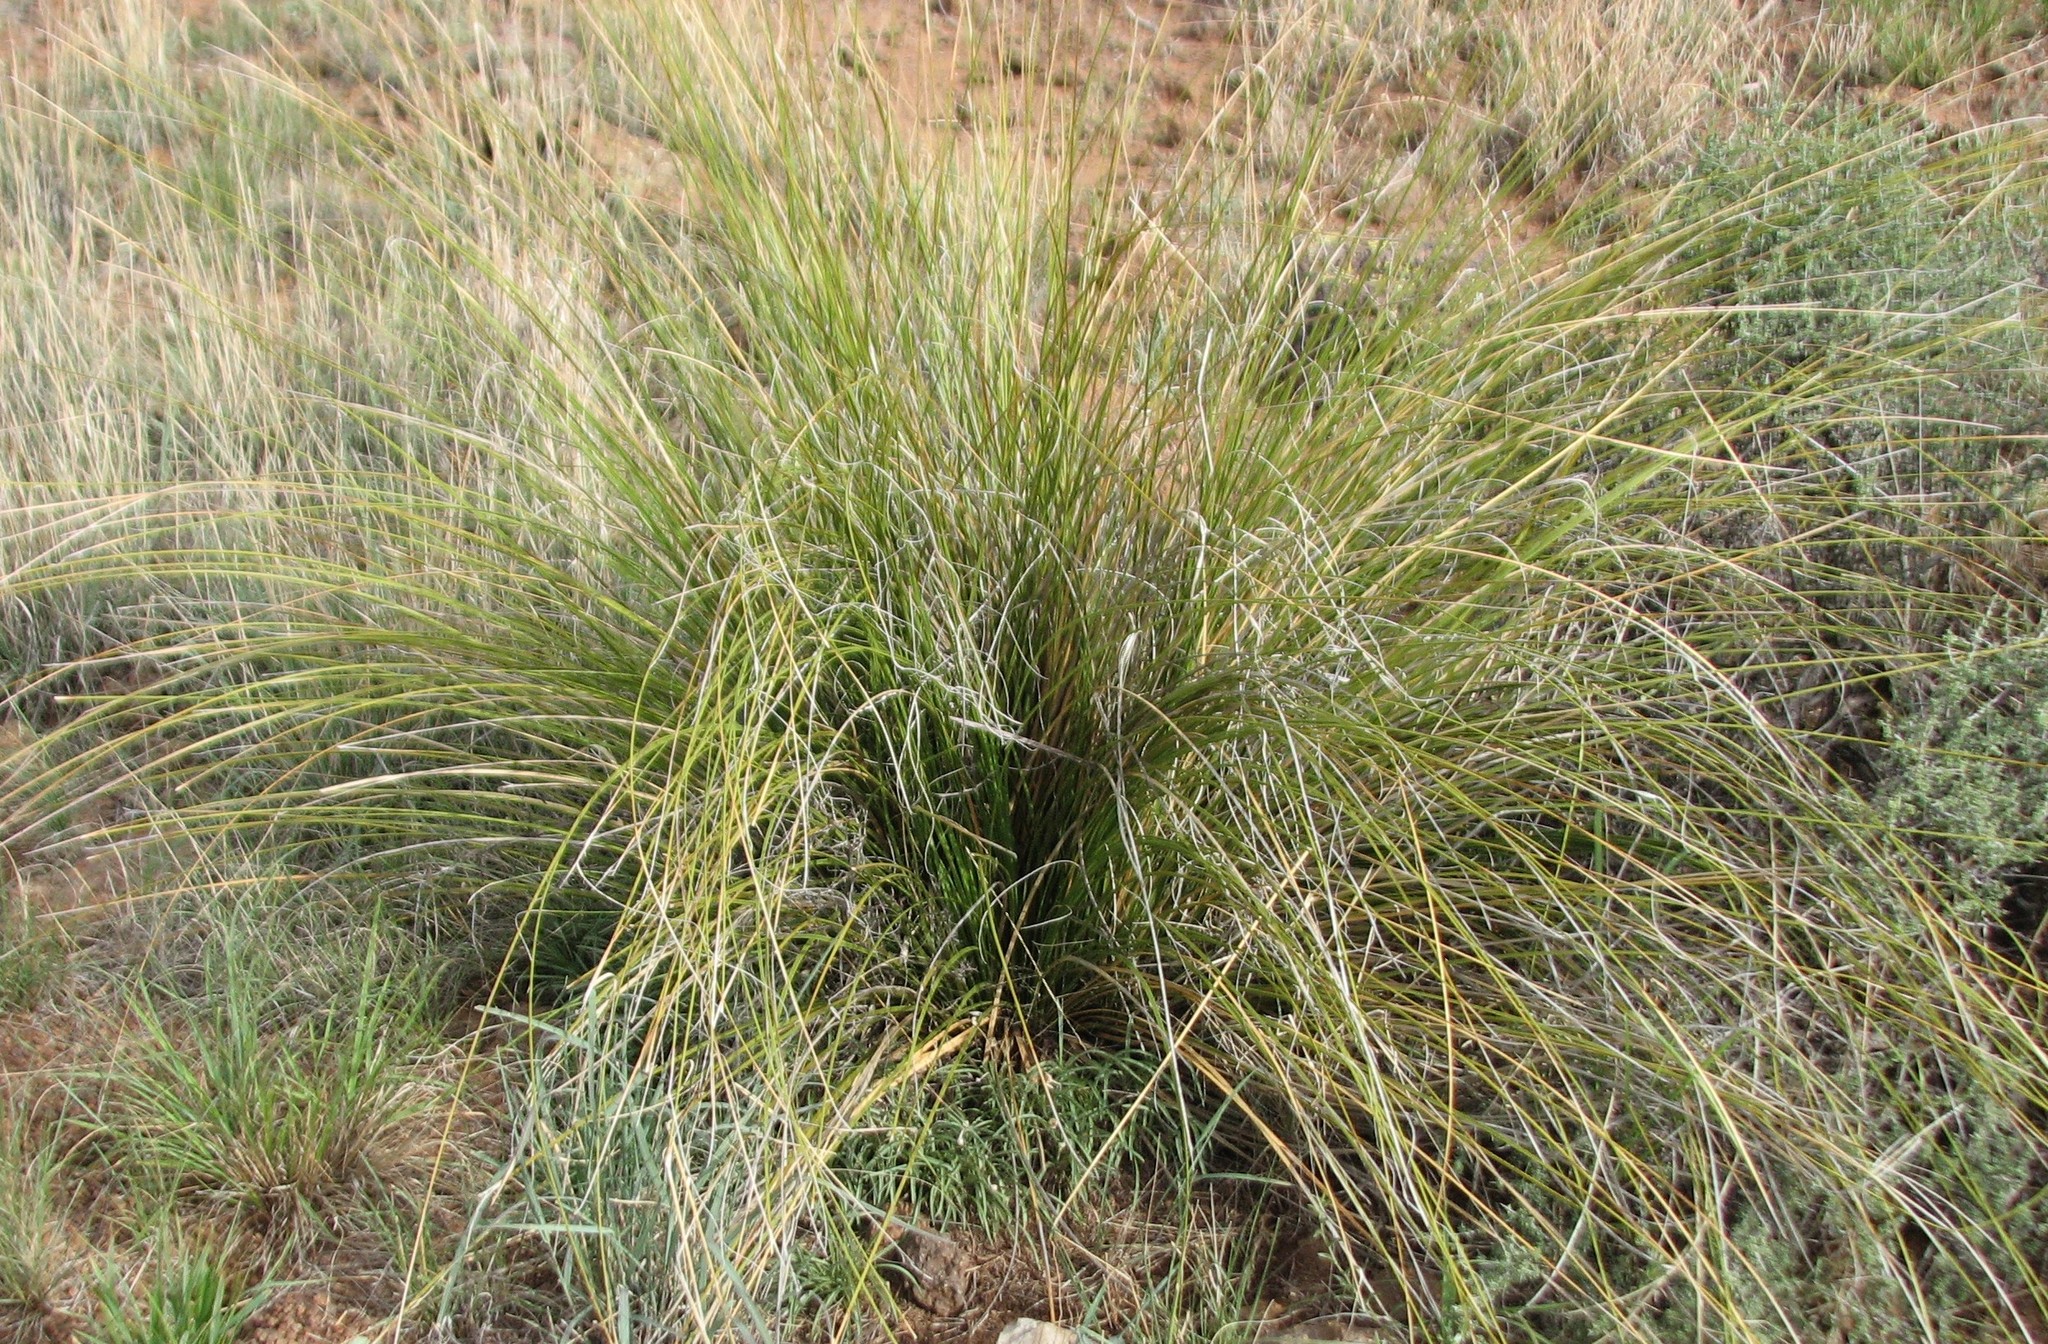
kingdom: Plantae
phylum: Tracheophyta
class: Liliopsida
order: Asparagales
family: Asparagaceae
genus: Nolina
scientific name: Nolina texana
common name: Texas sacahuiste
